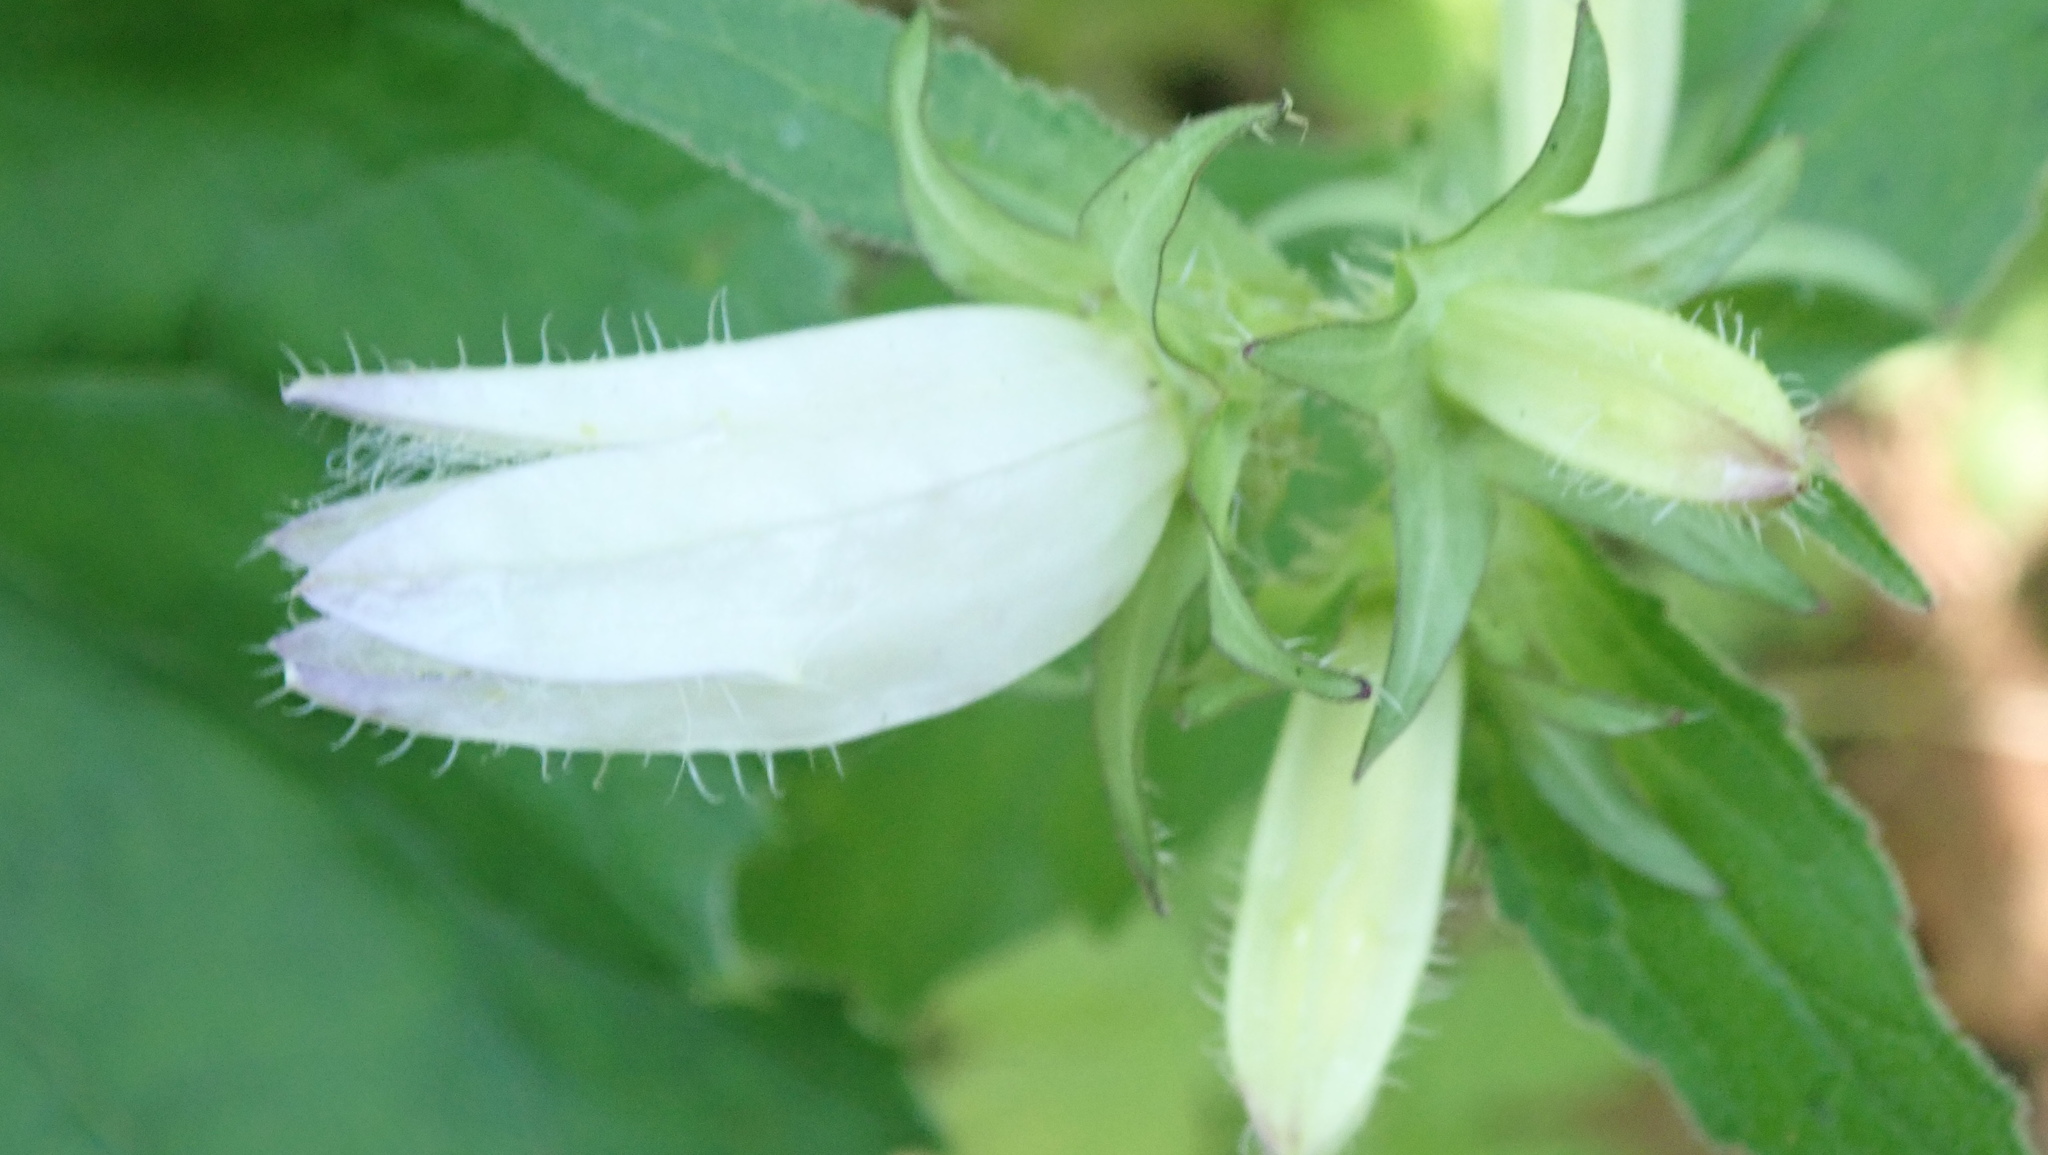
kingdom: Plantae
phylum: Tracheophyta
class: Magnoliopsida
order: Asterales
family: Campanulaceae
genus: Campanula
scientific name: Campanula trachelium
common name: Nettle-leaved bellflower
